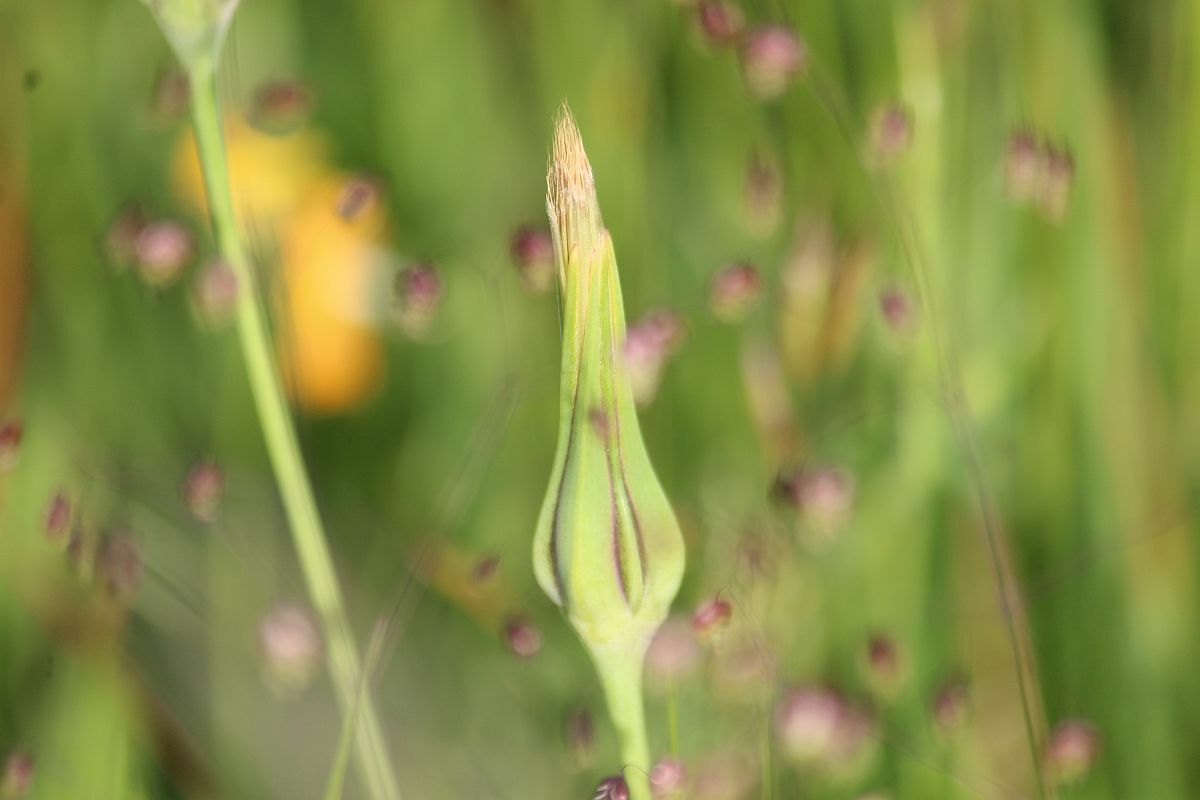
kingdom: Plantae
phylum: Tracheophyta
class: Magnoliopsida
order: Asterales
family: Asteraceae
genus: Tragopogon
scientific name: Tragopogon pratensis
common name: Goat's-beard
